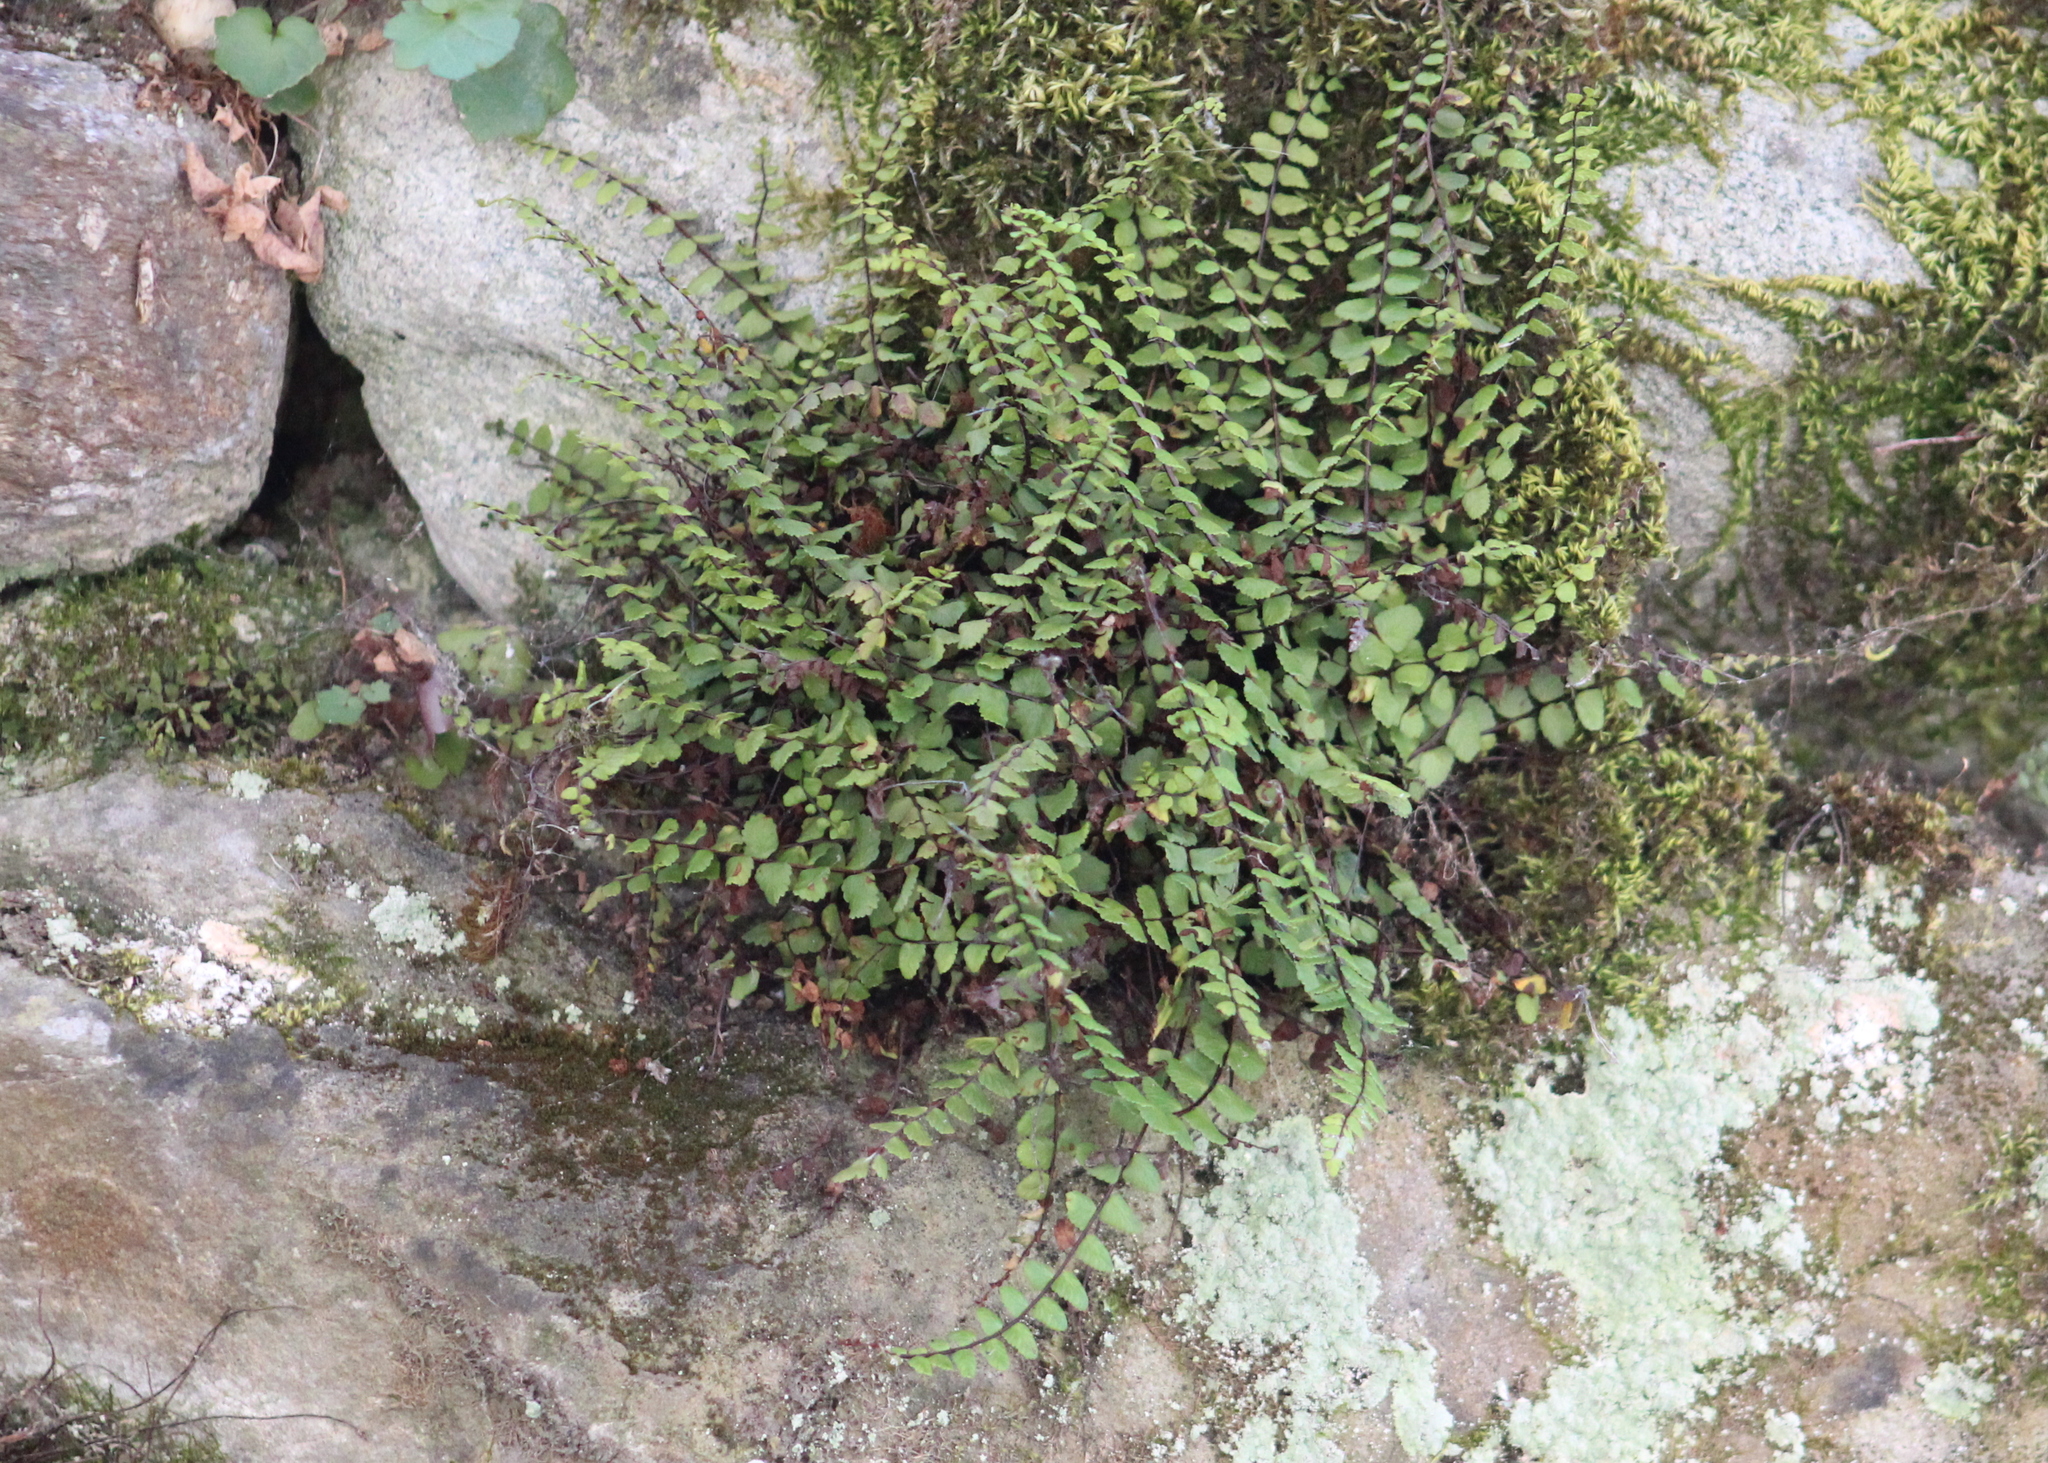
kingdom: Plantae
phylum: Tracheophyta
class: Polypodiopsida
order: Polypodiales
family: Aspleniaceae
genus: Asplenium
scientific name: Asplenium trichomanes
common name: Maidenhair spleenwort
